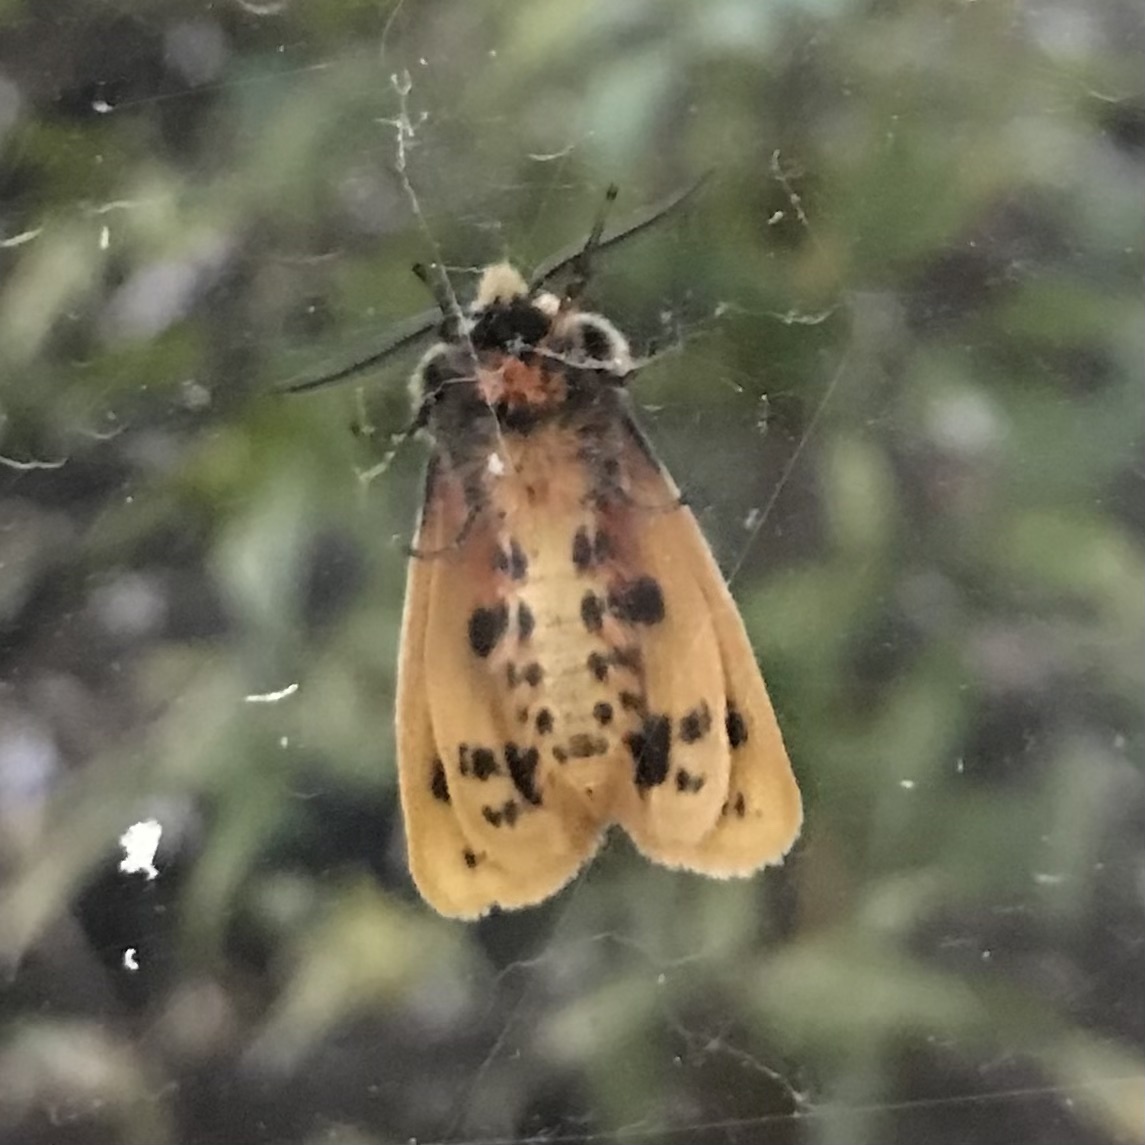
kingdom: Animalia
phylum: Arthropoda
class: Insecta
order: Lepidoptera
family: Erebidae
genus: Ardices
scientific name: Ardices curvata
